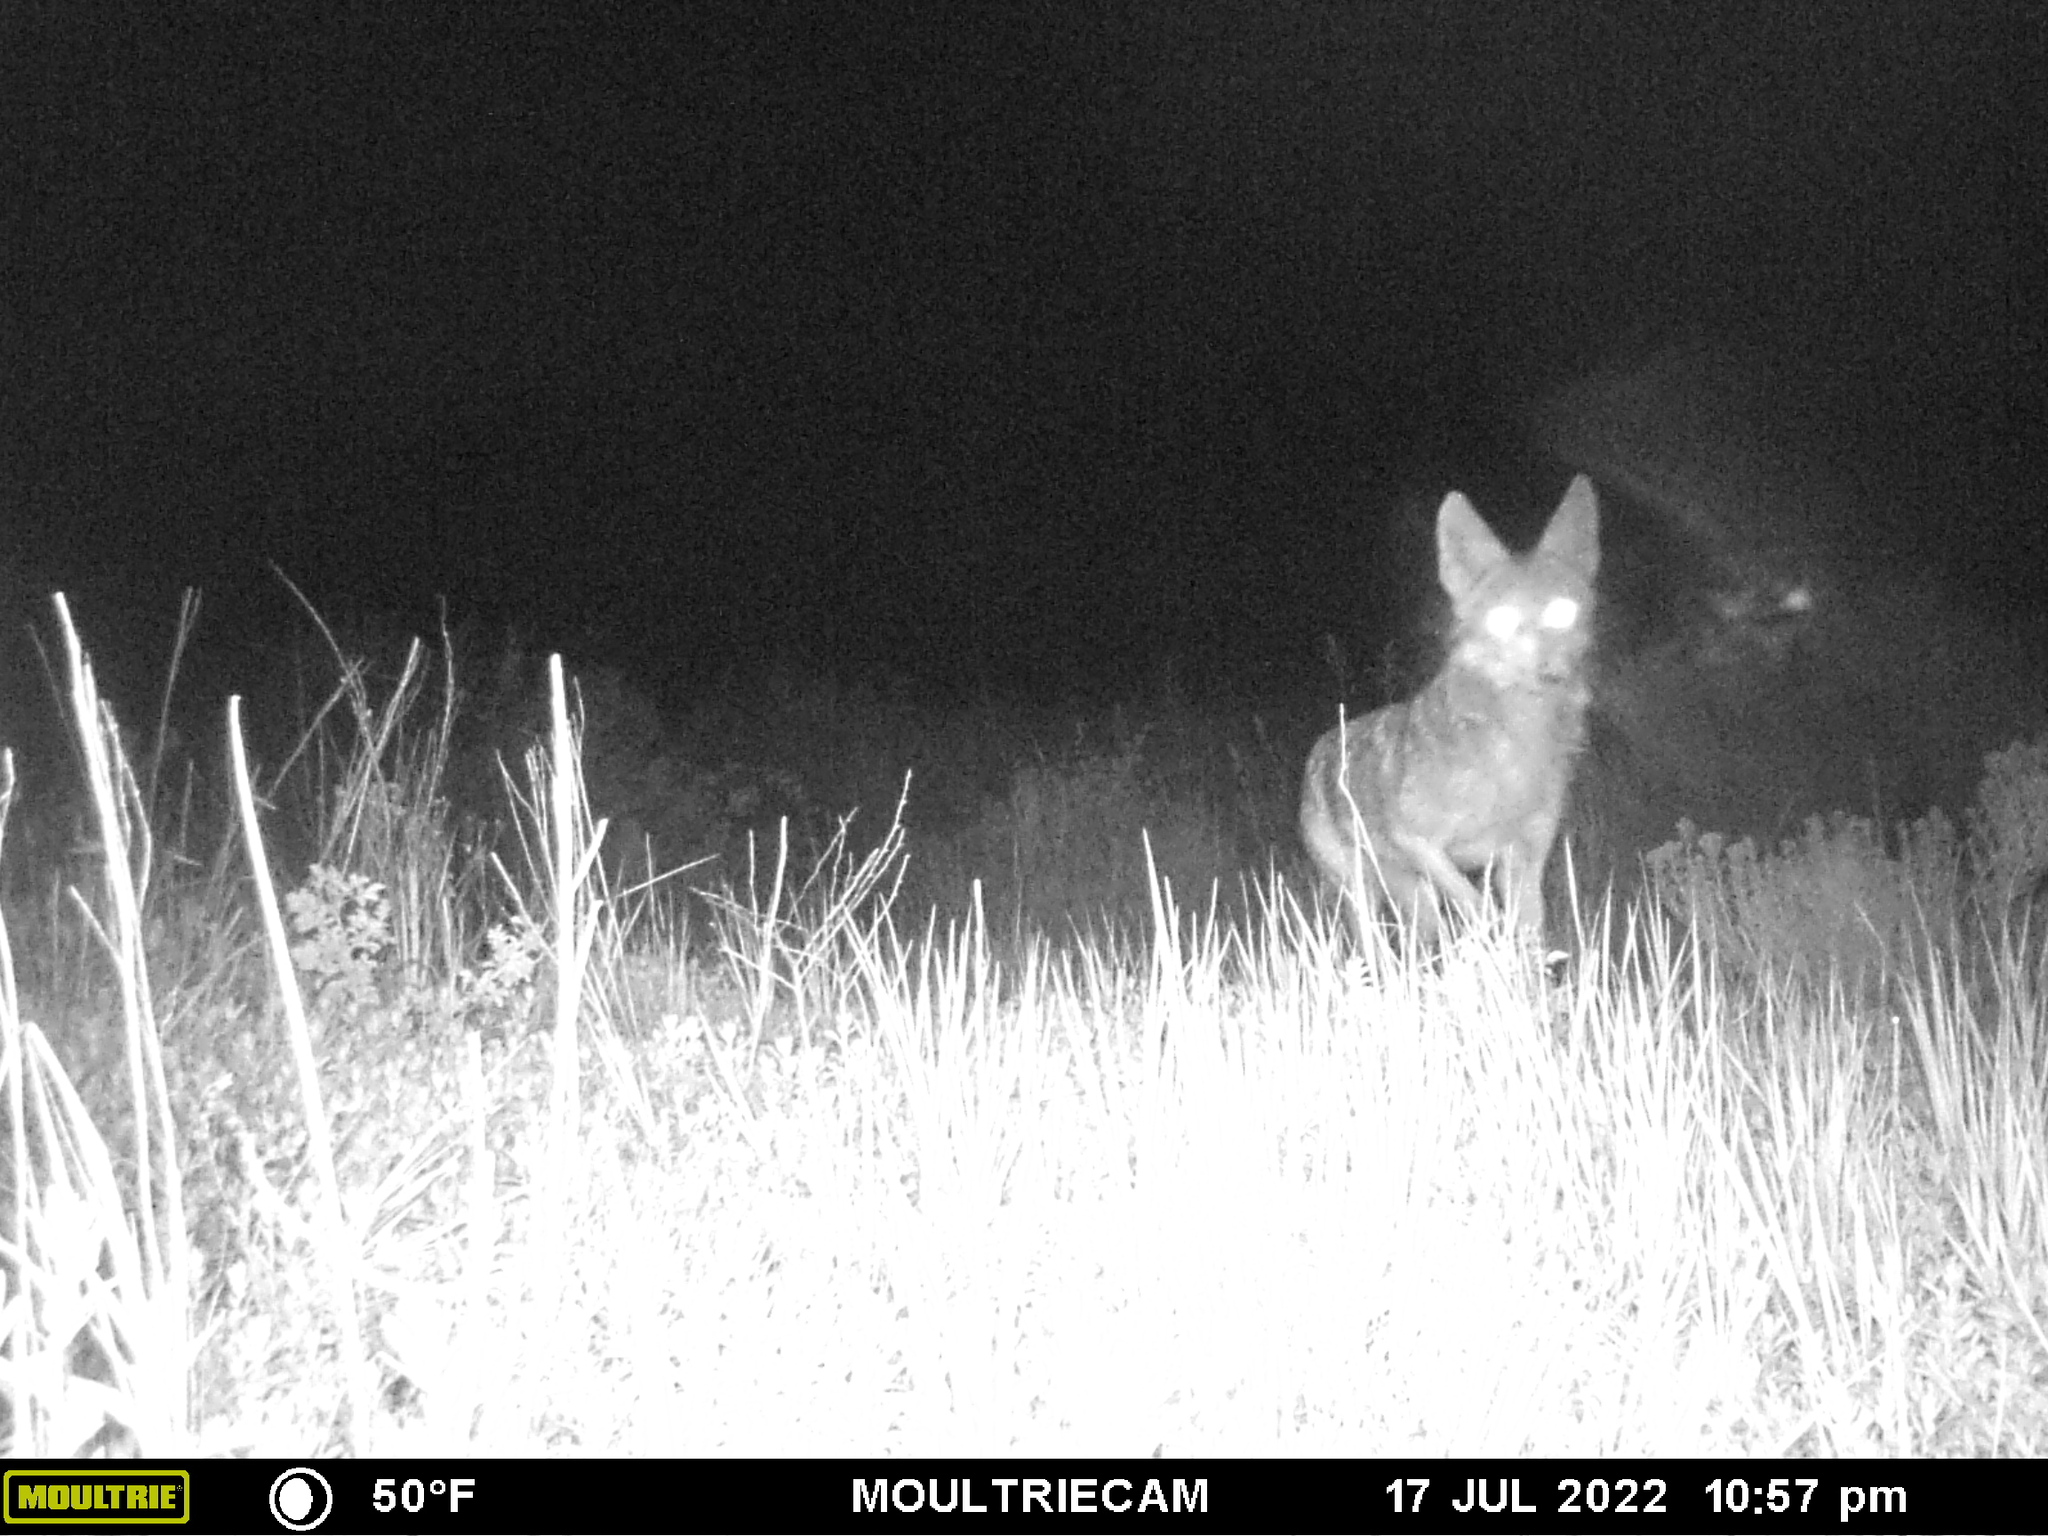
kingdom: Animalia
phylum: Chordata
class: Mammalia
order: Carnivora
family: Canidae
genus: Canis
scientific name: Canis latrans
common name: Coyote
